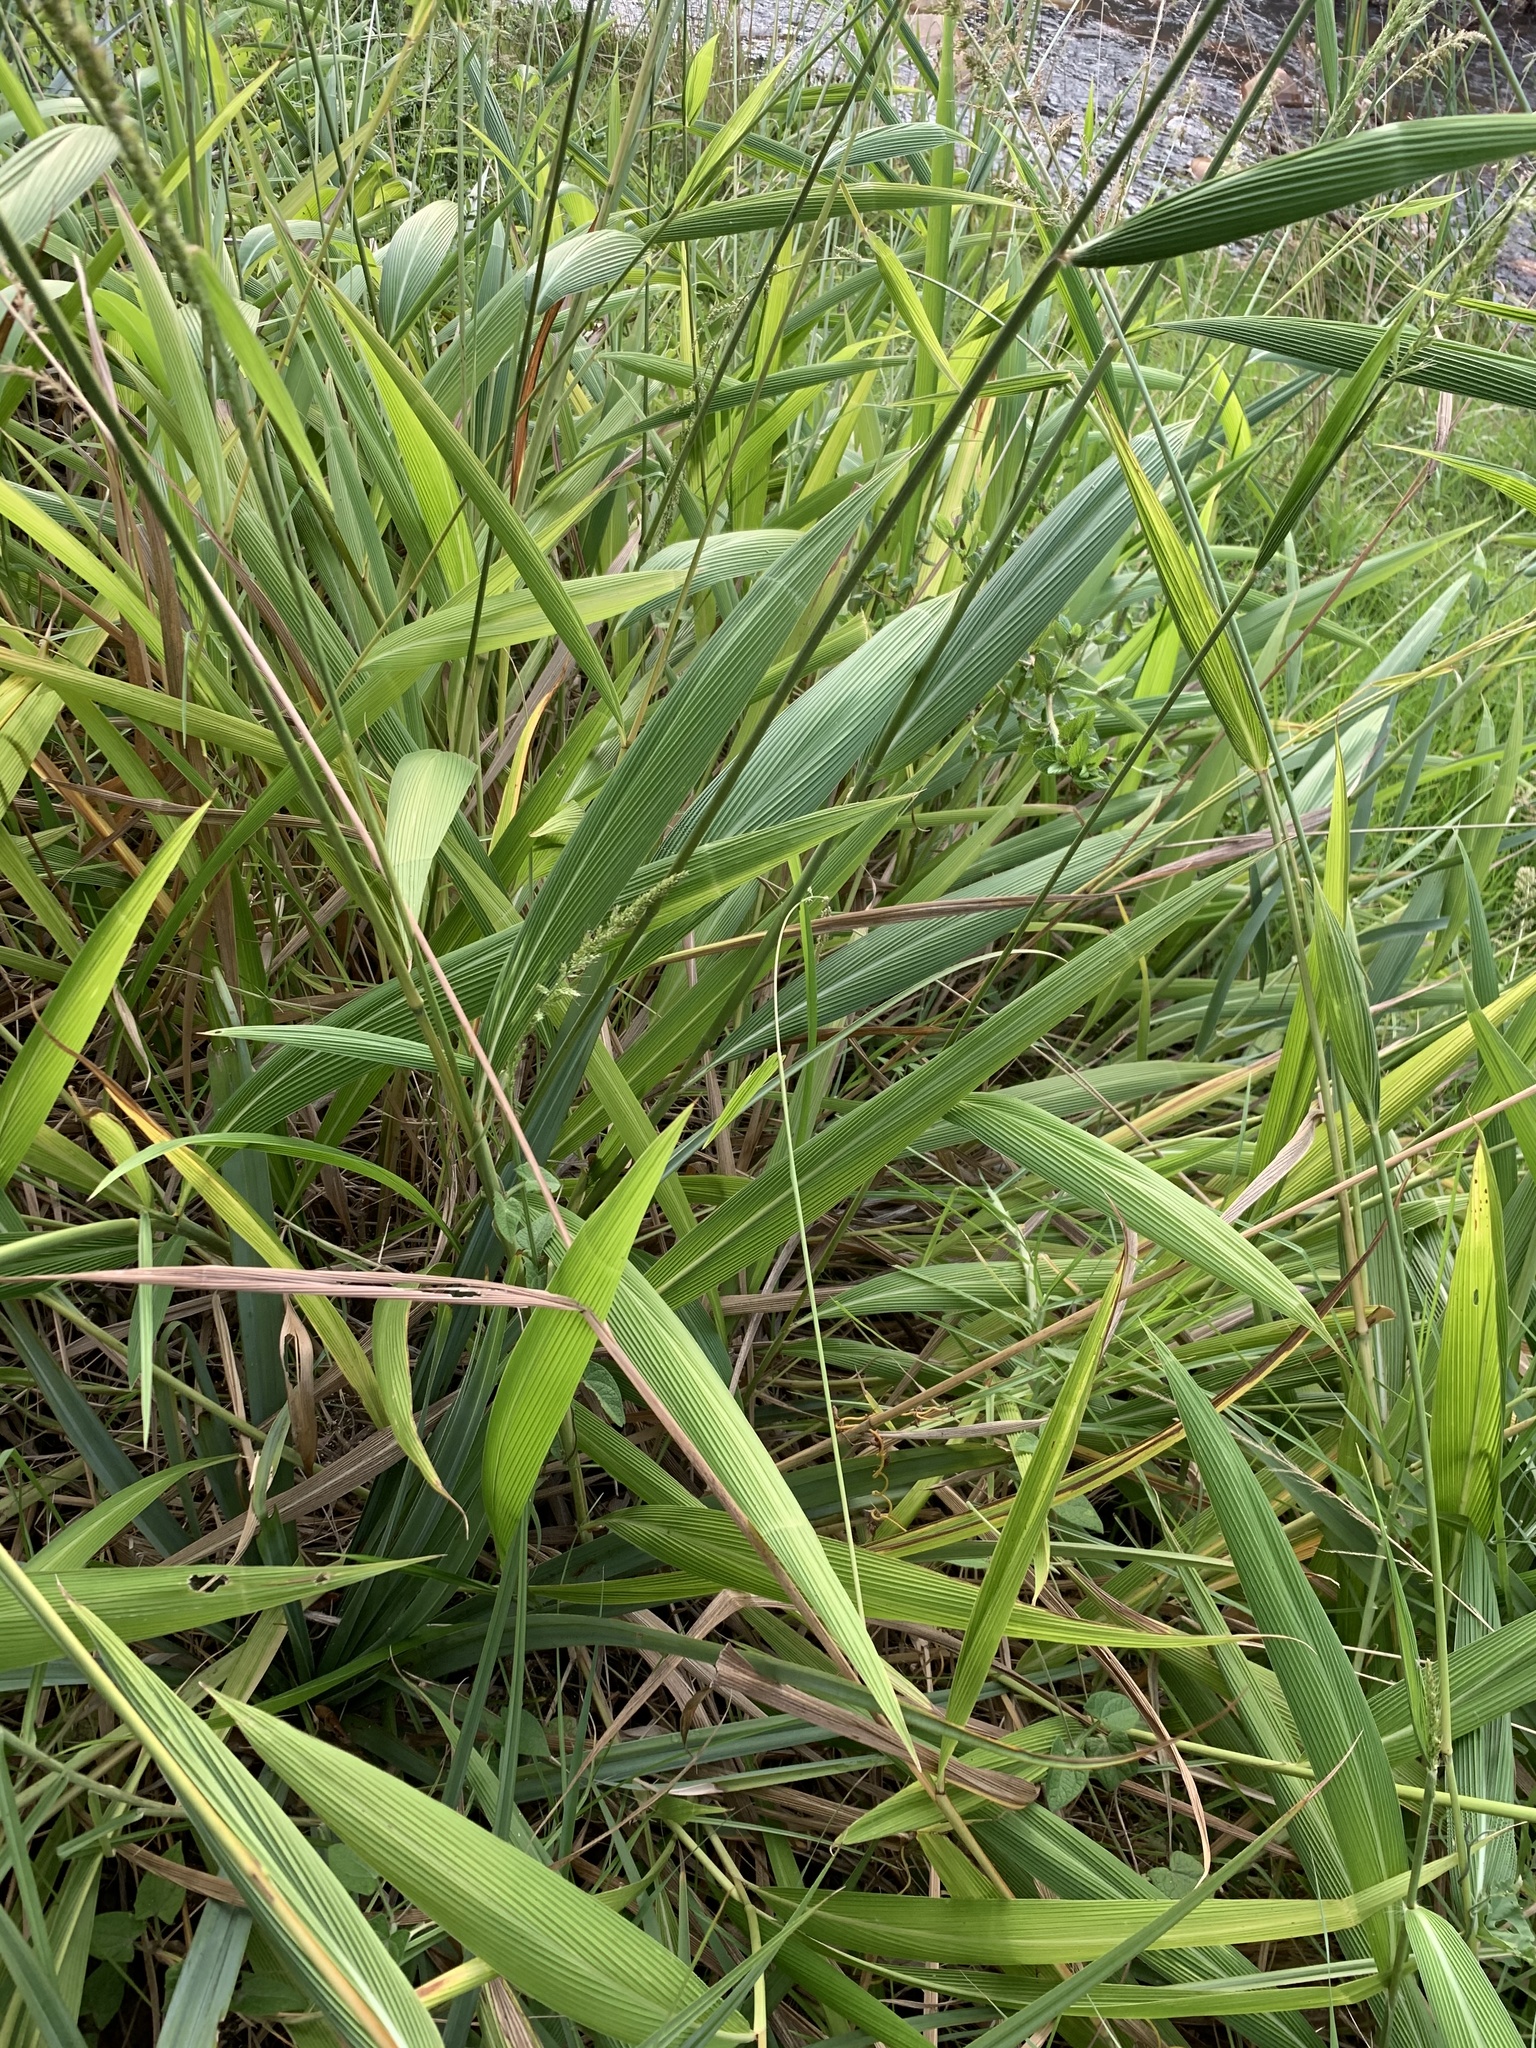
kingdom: Plantae
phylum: Tracheophyta
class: Liliopsida
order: Poales
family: Poaceae
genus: Setaria
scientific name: Setaria megaphylla
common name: Bigleaf bristlegrass
